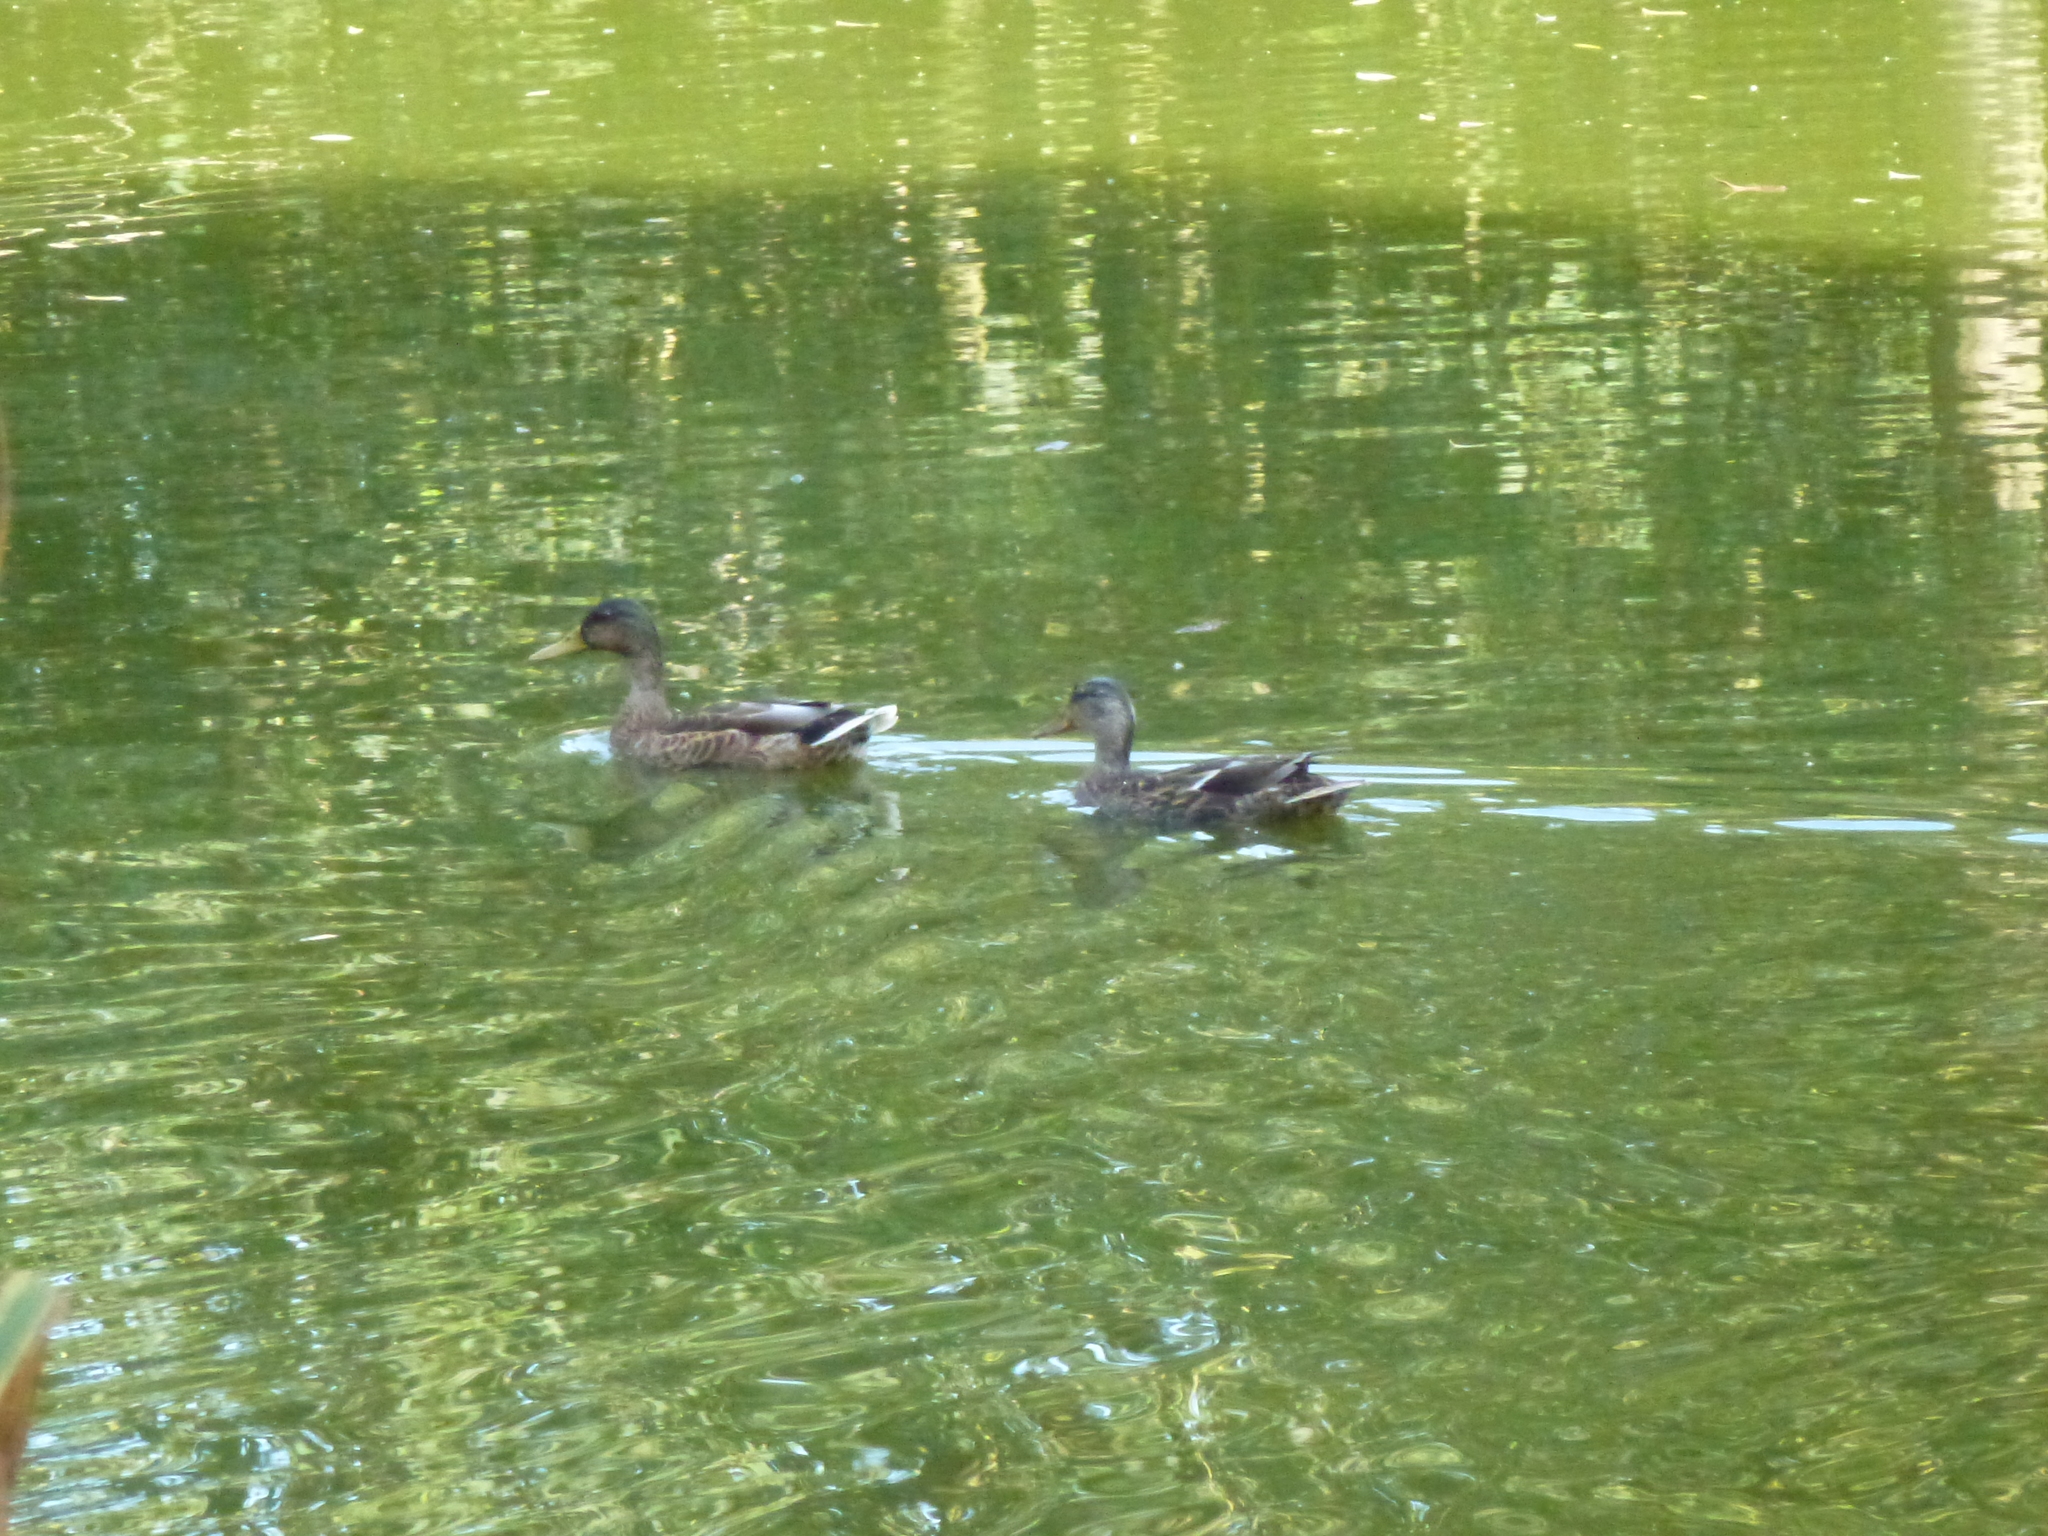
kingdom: Animalia
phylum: Chordata
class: Aves
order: Anseriformes
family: Anatidae
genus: Anas
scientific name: Anas platyrhynchos
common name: Mallard
